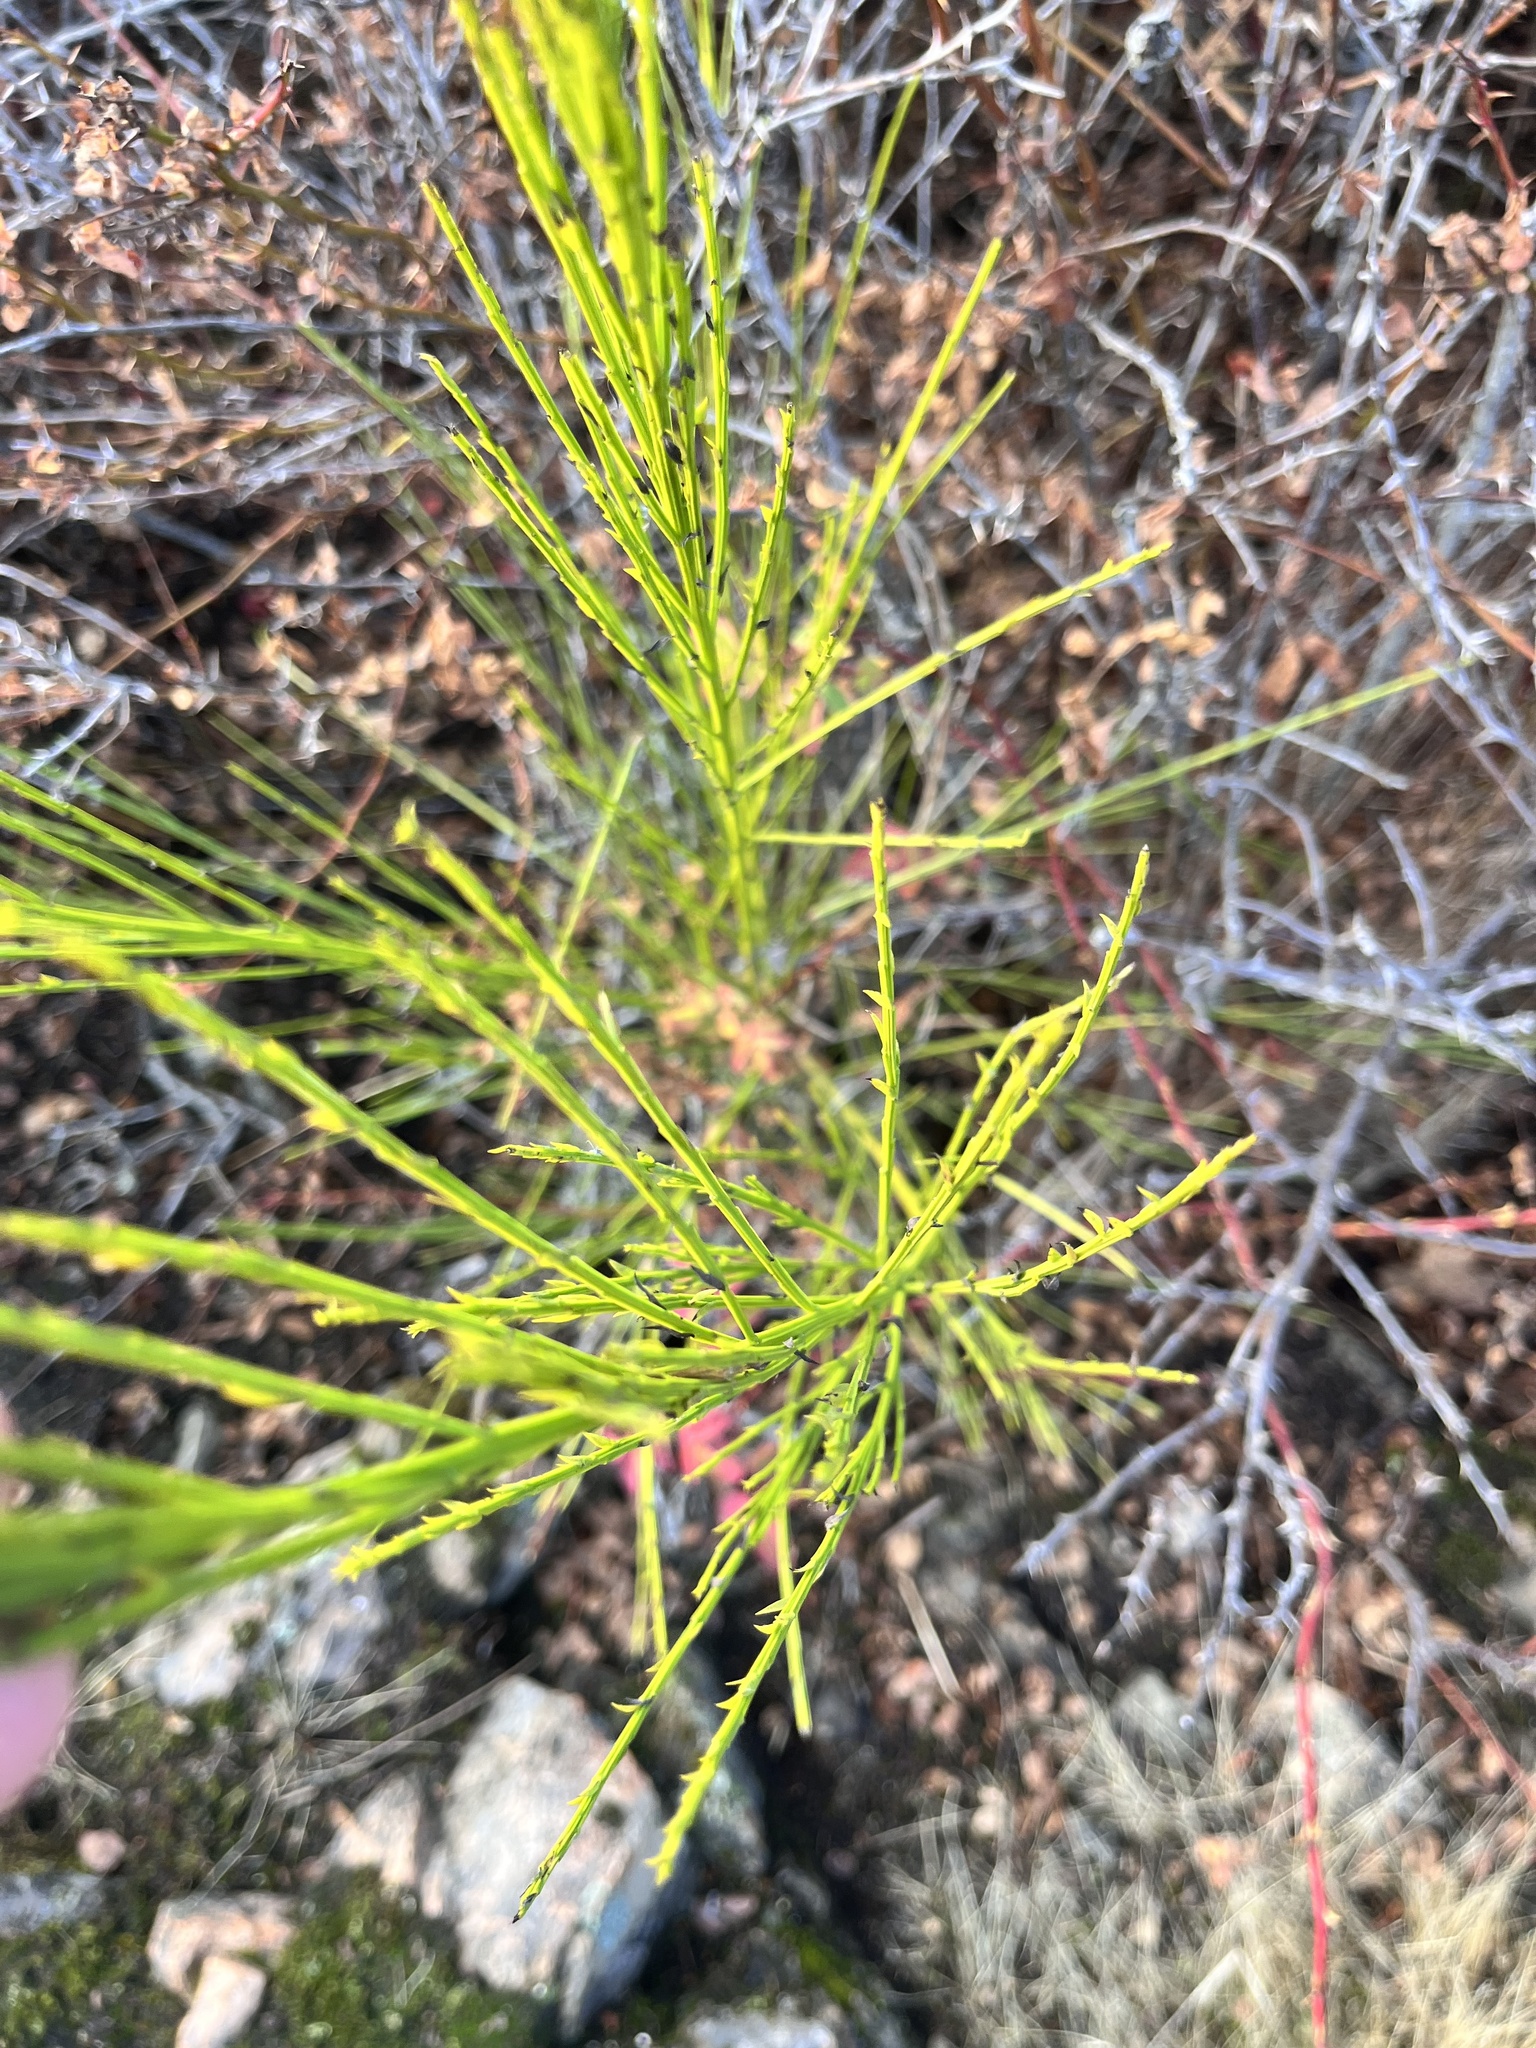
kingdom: Plantae
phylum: Tracheophyta
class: Magnoliopsida
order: Fabales
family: Fabaceae
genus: Cytisus
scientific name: Cytisus scoparius
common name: Scotch broom
